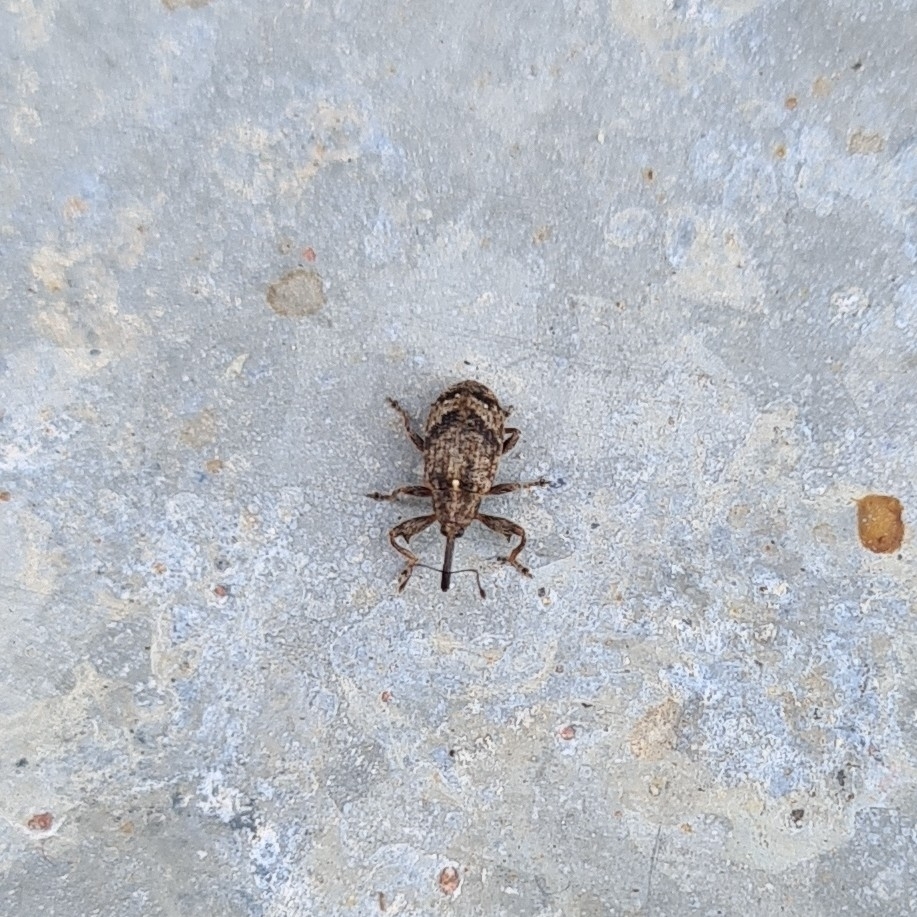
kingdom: Animalia
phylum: Arthropoda
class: Insecta
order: Coleoptera
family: Curculionidae
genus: Anthonomus
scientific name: Anthonomus pomorum
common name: Apple-blossom weevil
